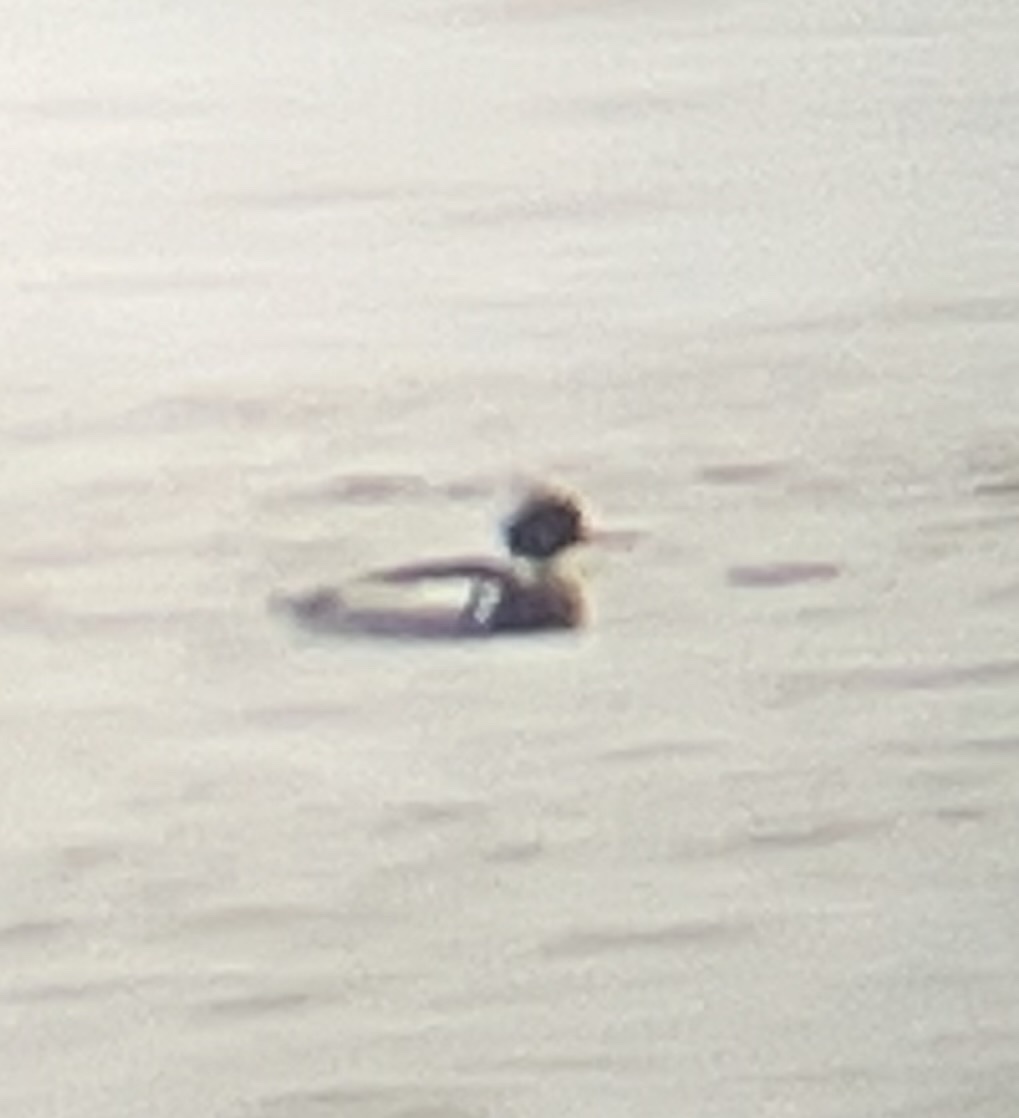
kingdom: Animalia
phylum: Chordata
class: Aves
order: Anseriformes
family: Anatidae
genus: Mergus
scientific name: Mergus serrator
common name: Red-breasted merganser
